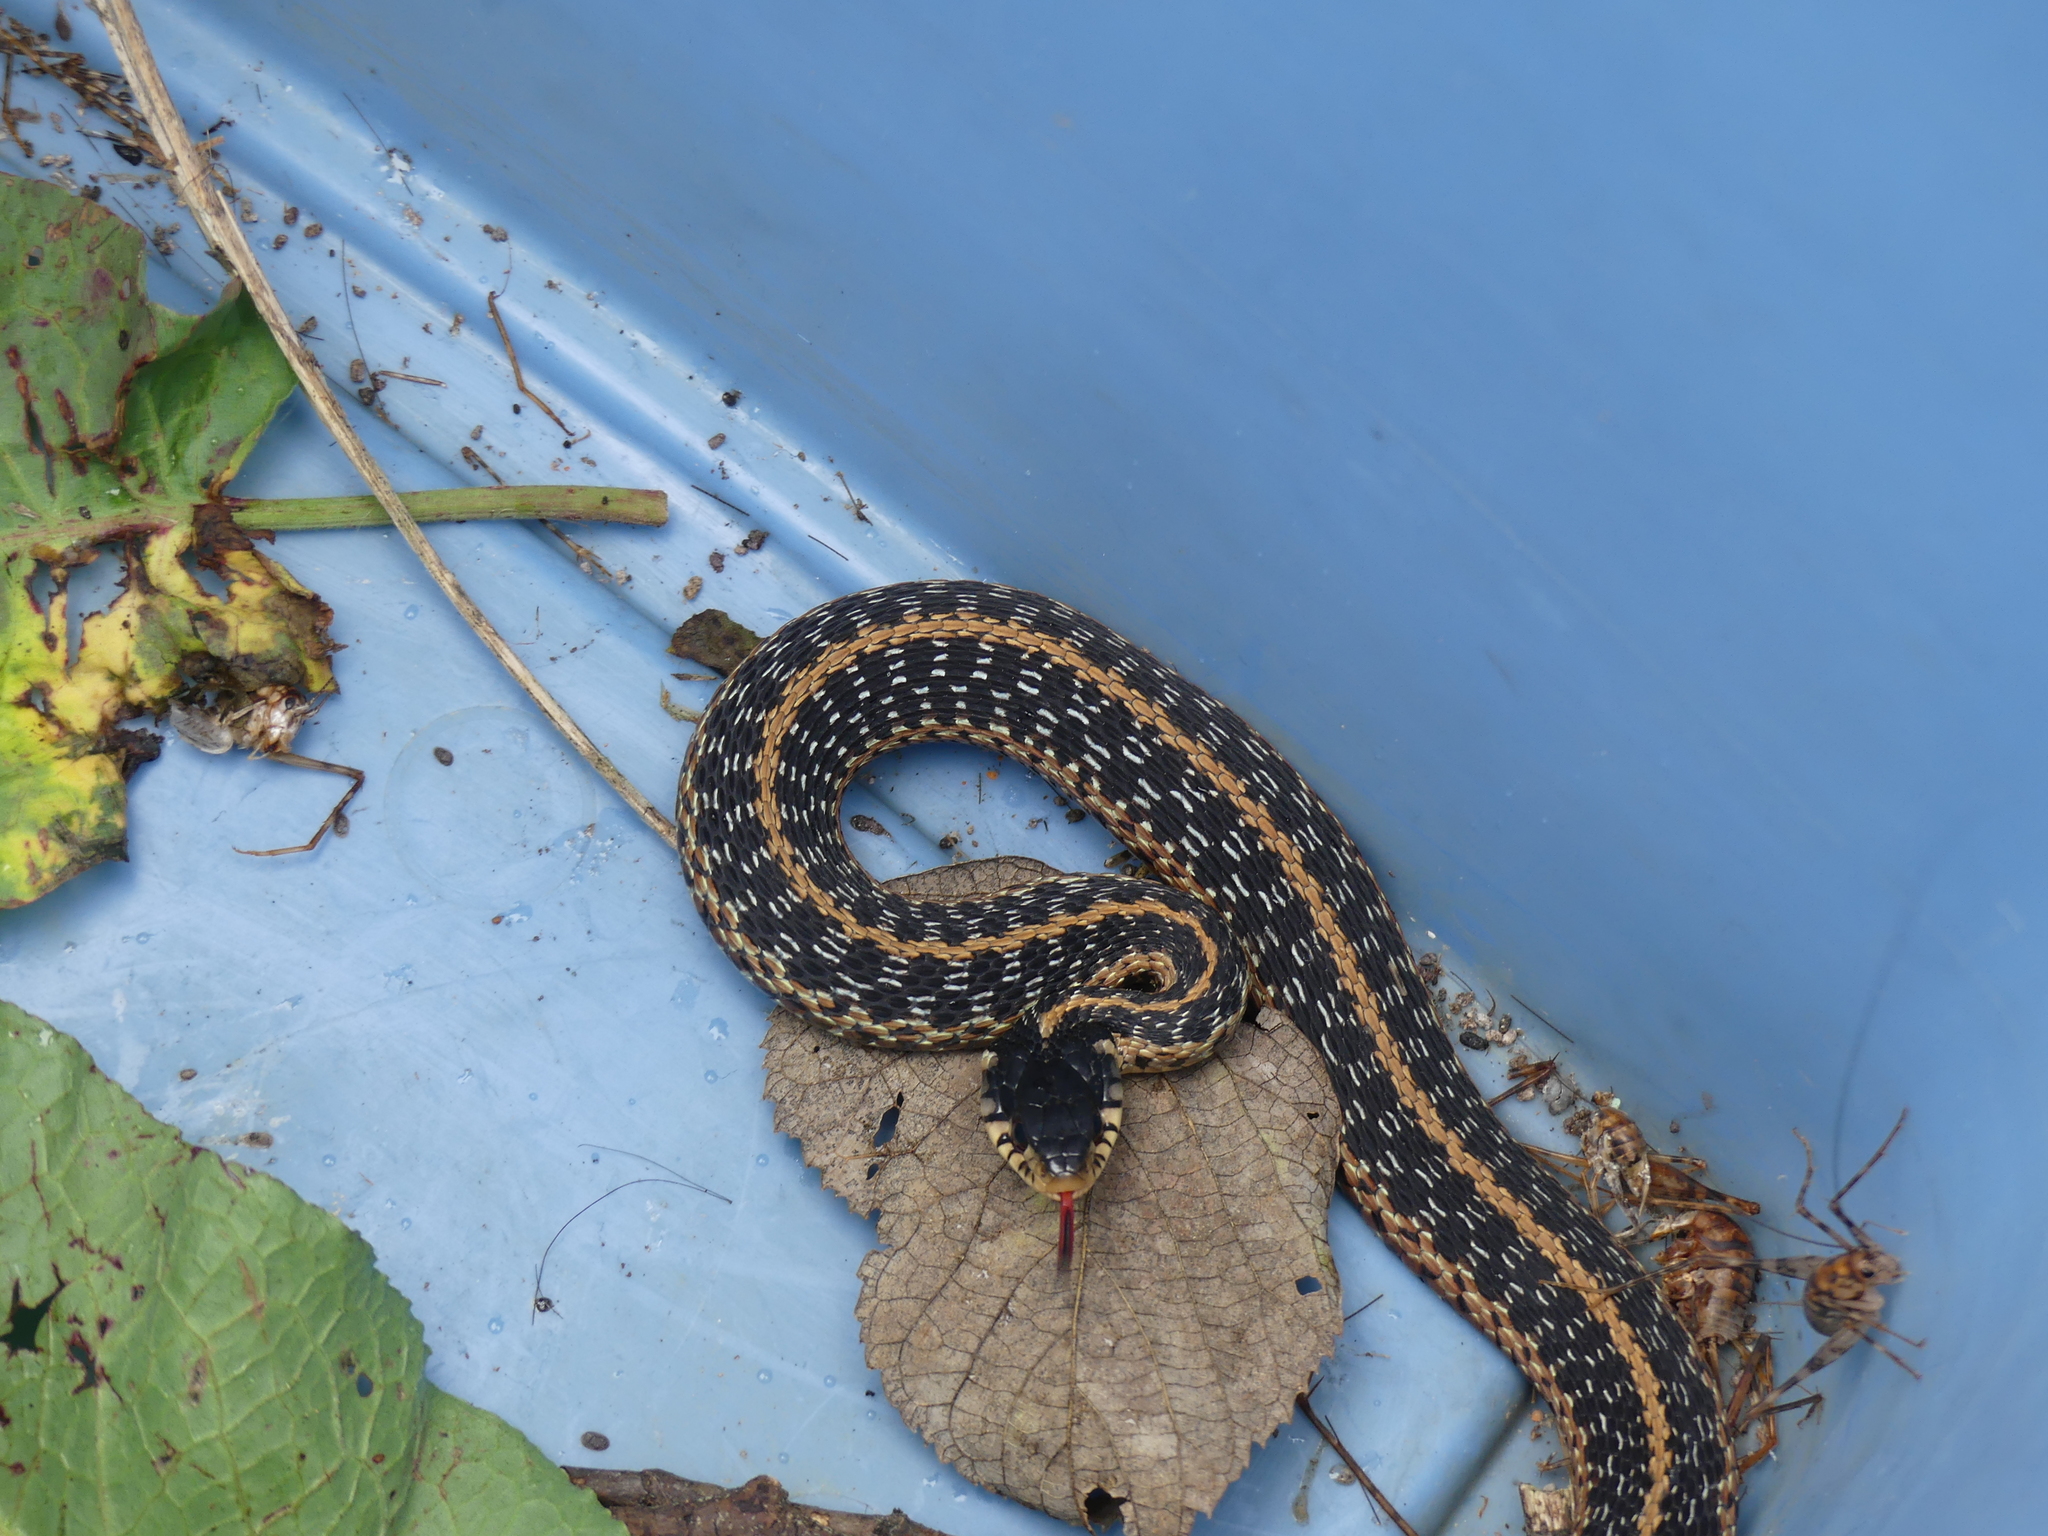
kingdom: Animalia
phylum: Chordata
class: Squamata
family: Colubridae
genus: Thamnophis
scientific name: Thamnophis sirtalis
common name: Common garter snake
